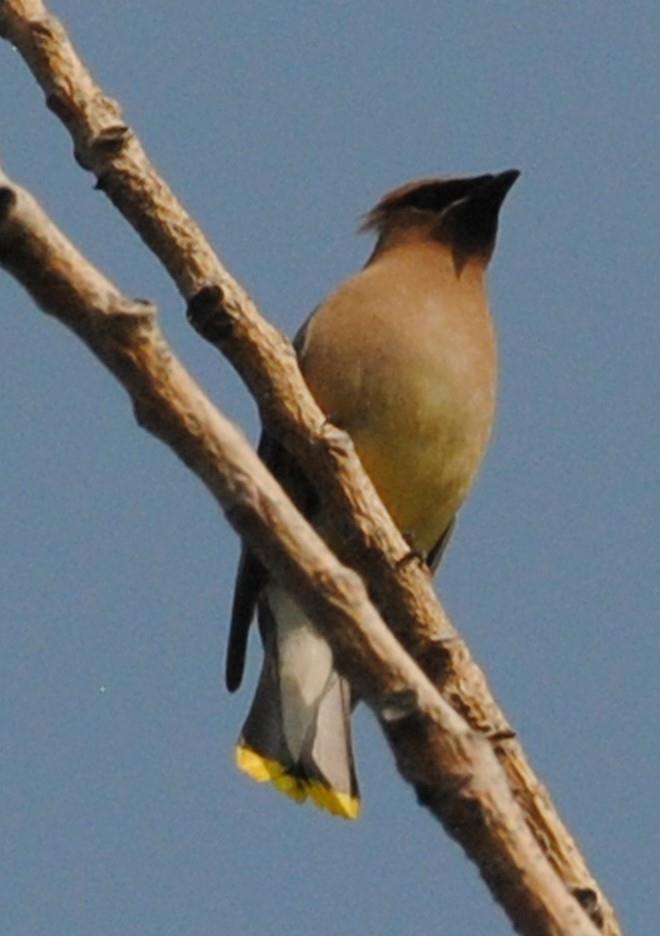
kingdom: Animalia
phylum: Chordata
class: Aves
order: Passeriformes
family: Bombycillidae
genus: Bombycilla
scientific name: Bombycilla cedrorum
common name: Cedar waxwing
